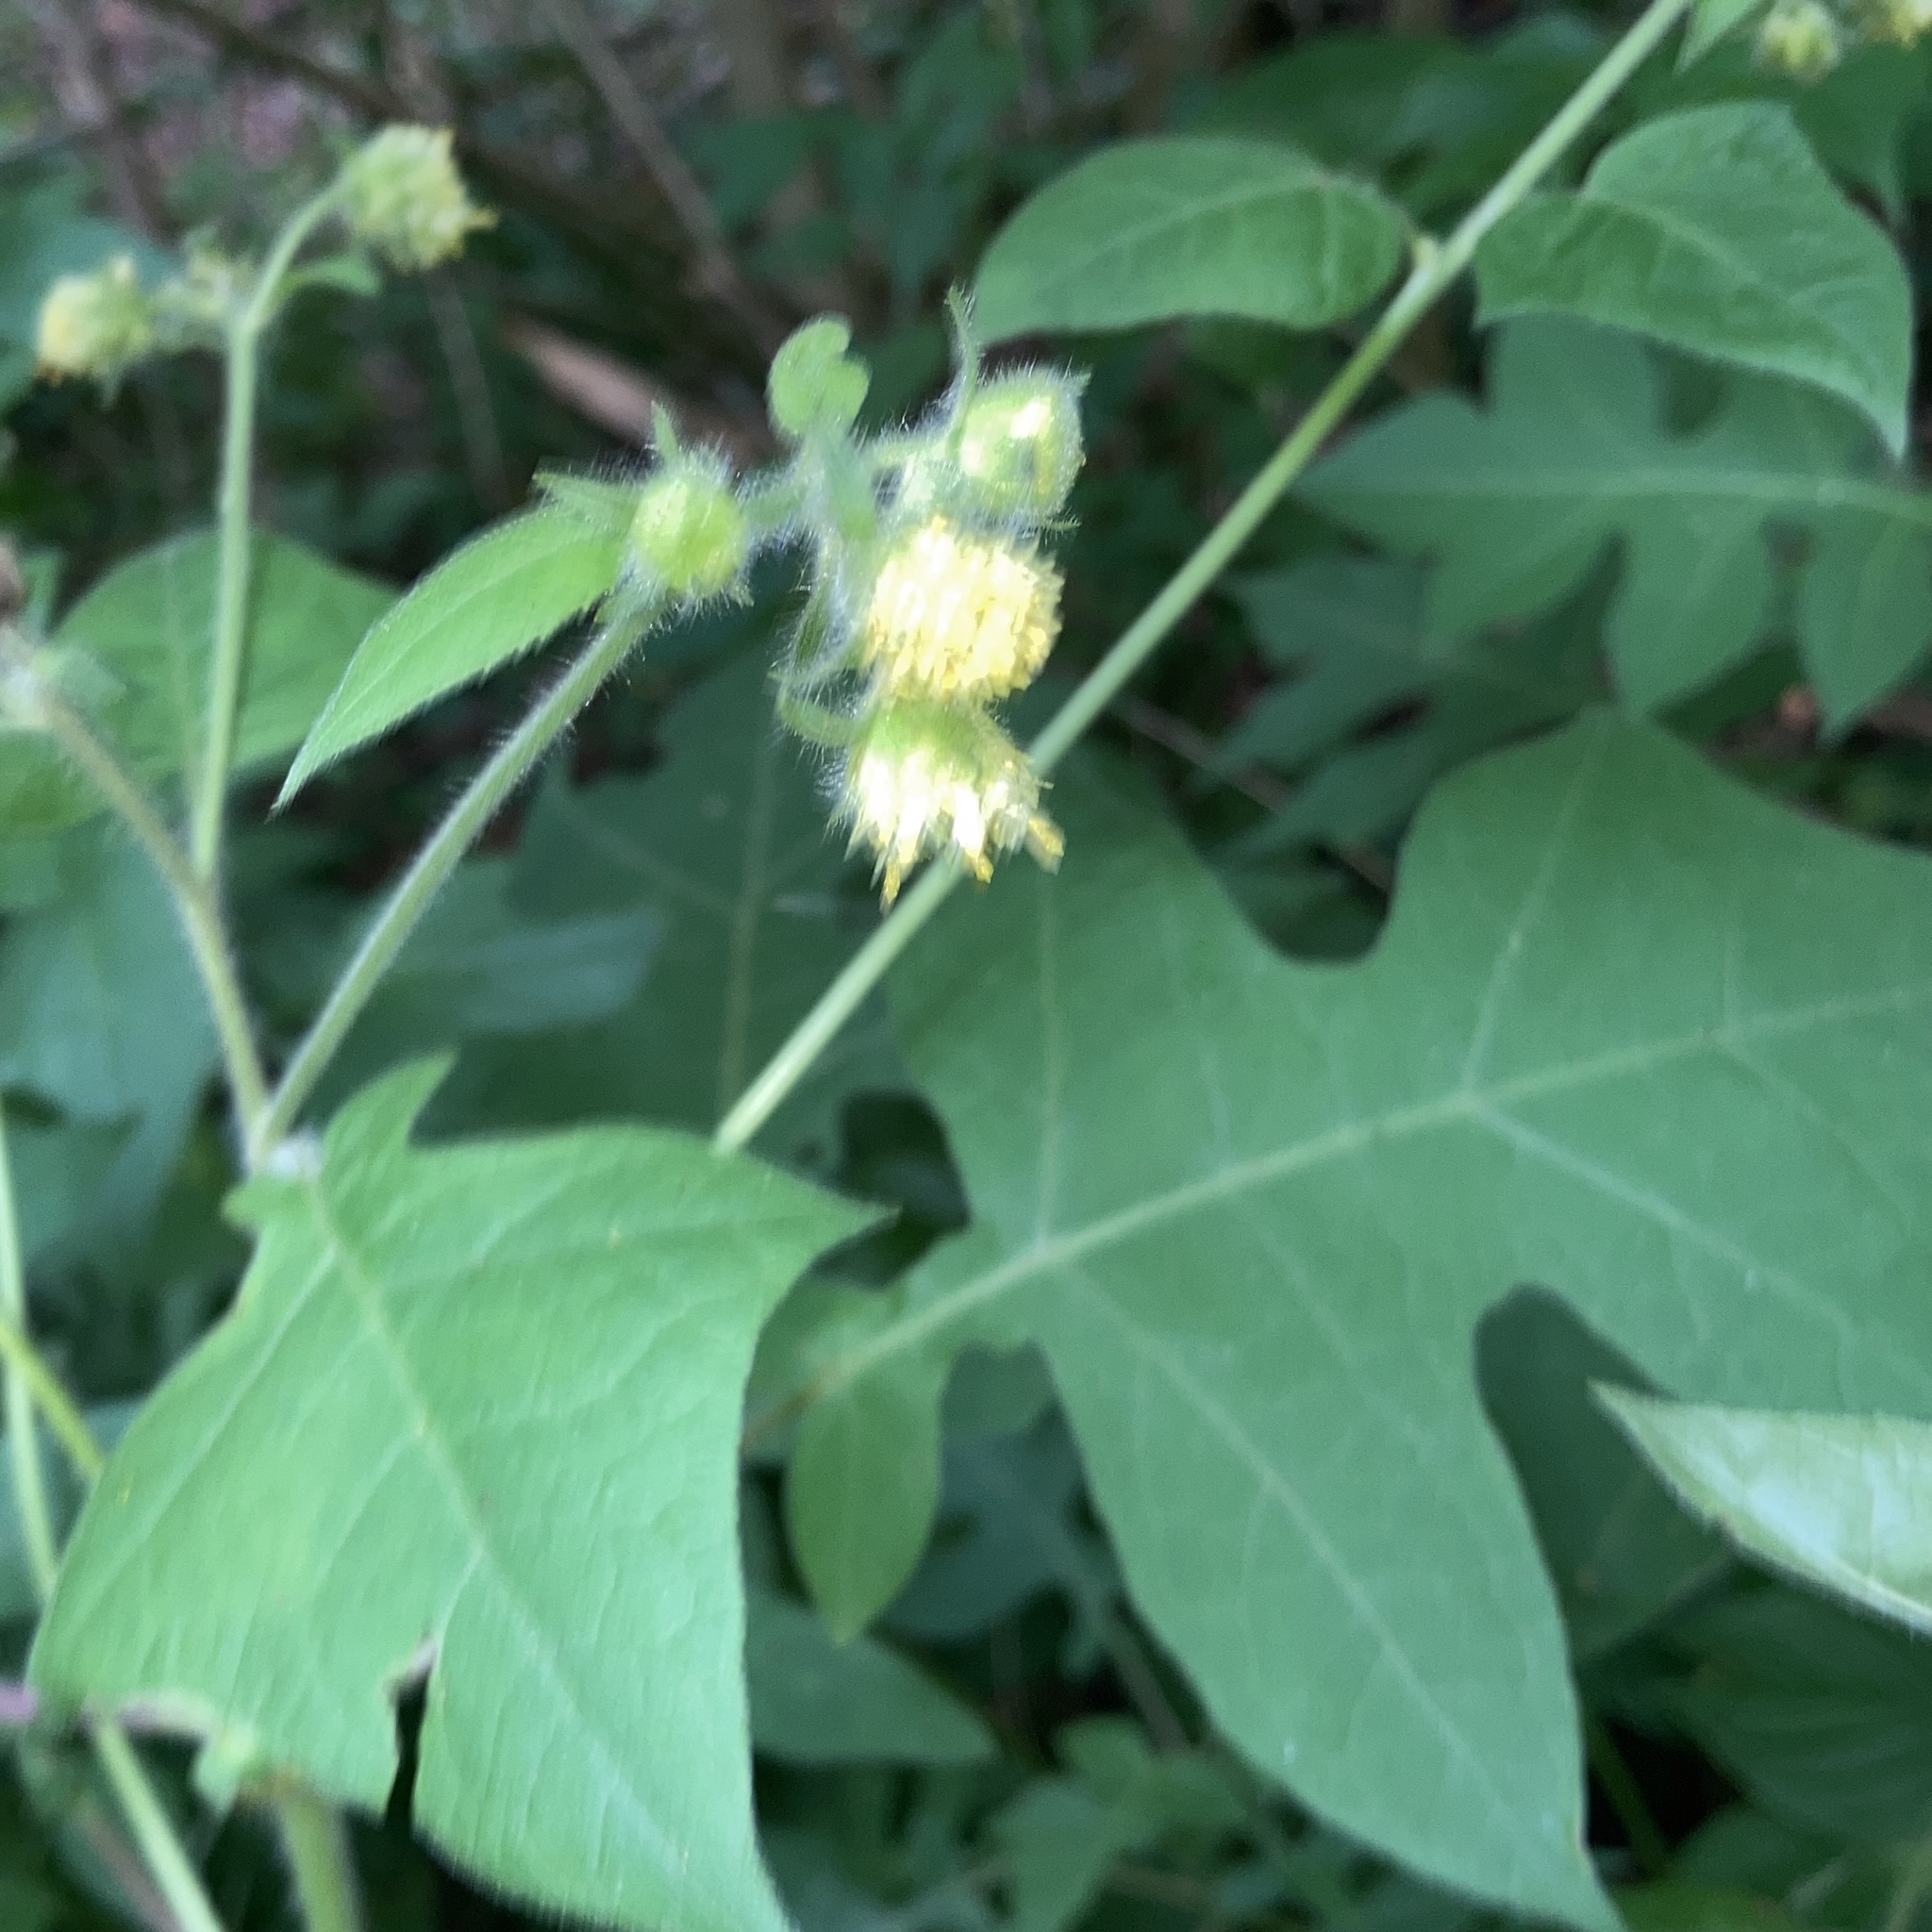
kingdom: Plantae
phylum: Tracheophyta
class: Magnoliopsida
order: Asterales
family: Asteraceae
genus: Polymnia
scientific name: Polymnia canadensis
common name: Pale-flowered leafcup
